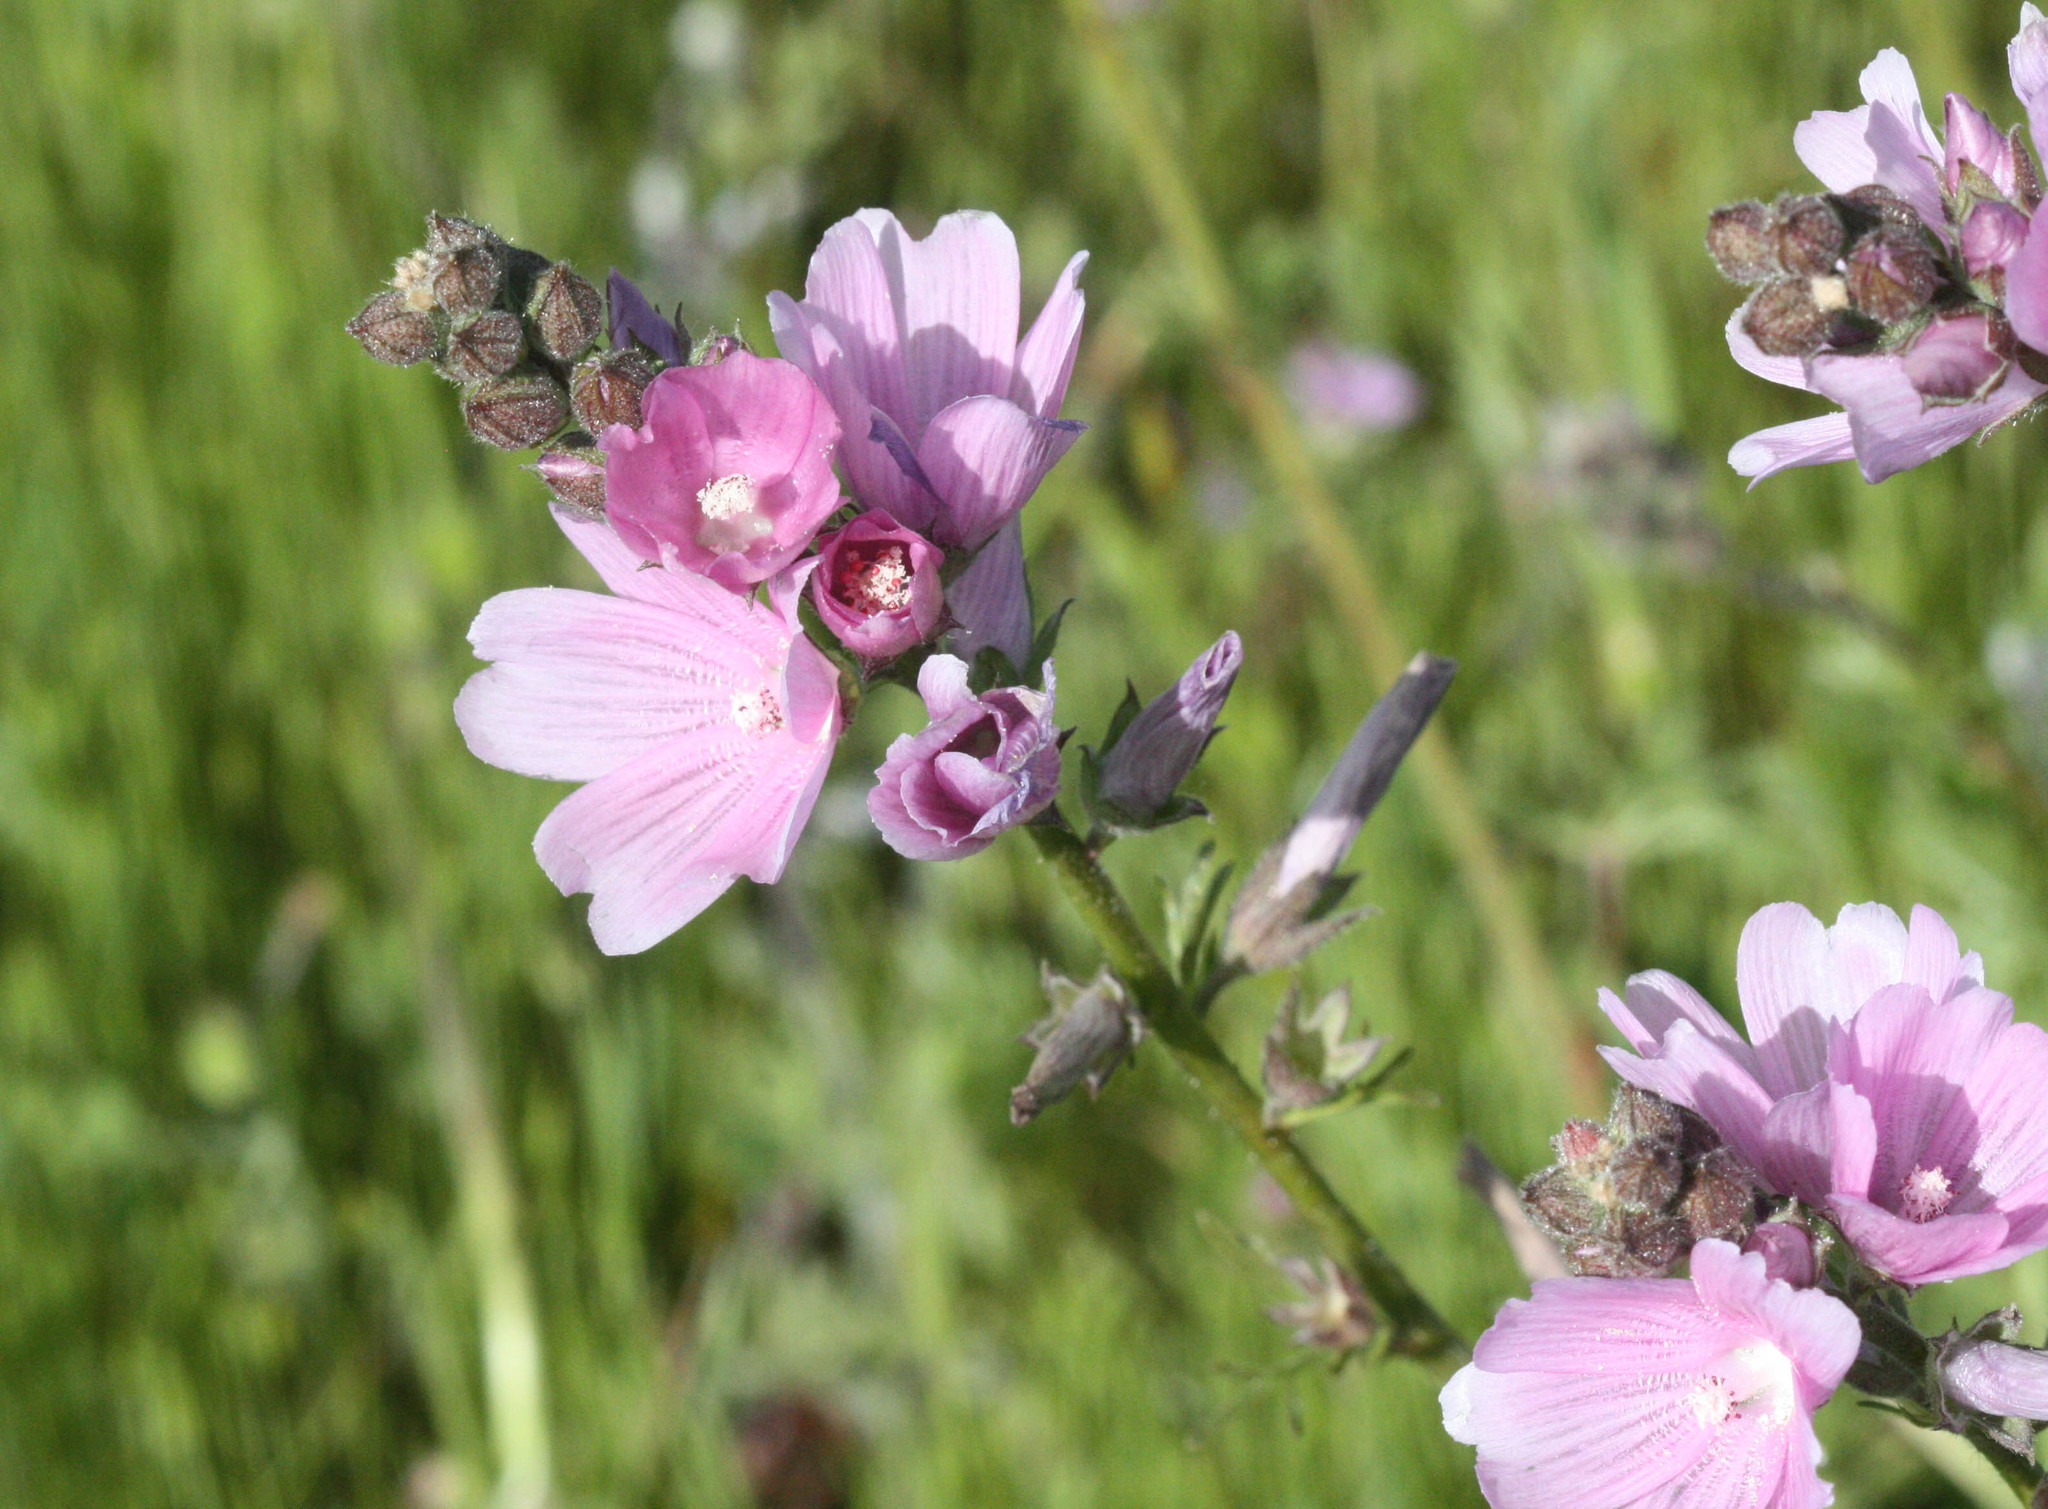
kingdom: Plantae
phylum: Tracheophyta
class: Magnoliopsida
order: Malvales
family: Malvaceae
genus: Sidalcea
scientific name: Sidalcea malviflora
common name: Greek mallow
